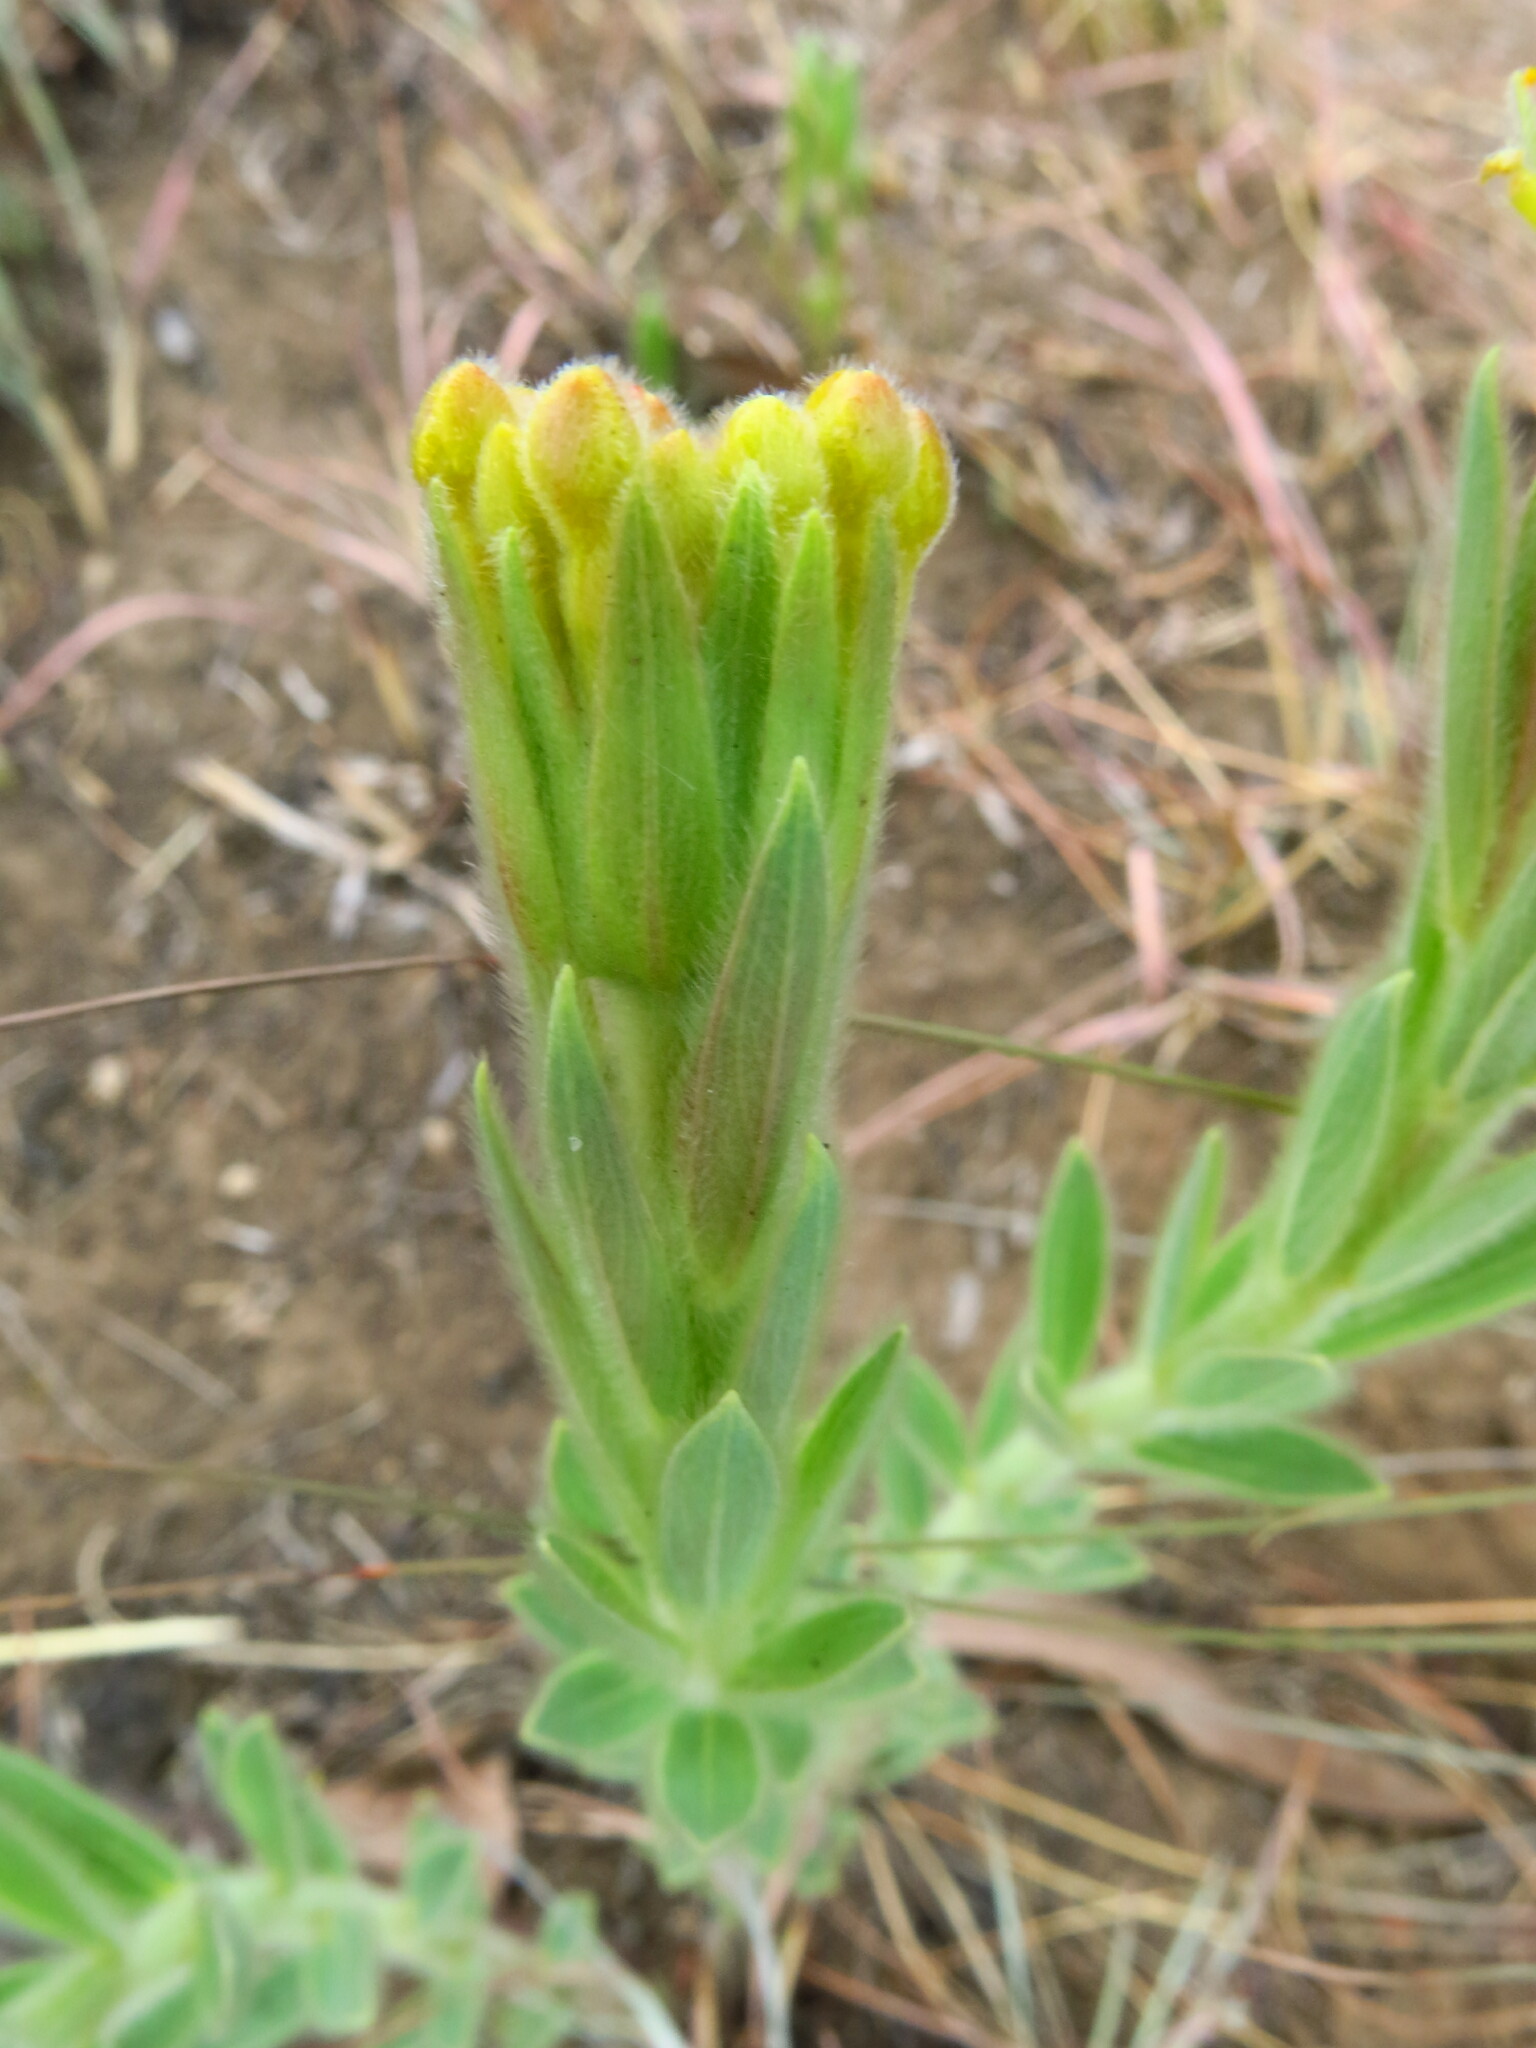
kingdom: Plantae
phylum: Tracheophyta
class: Magnoliopsida
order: Malvales
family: Thymelaeaceae
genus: Gnidia
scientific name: Gnidia kraussiana
